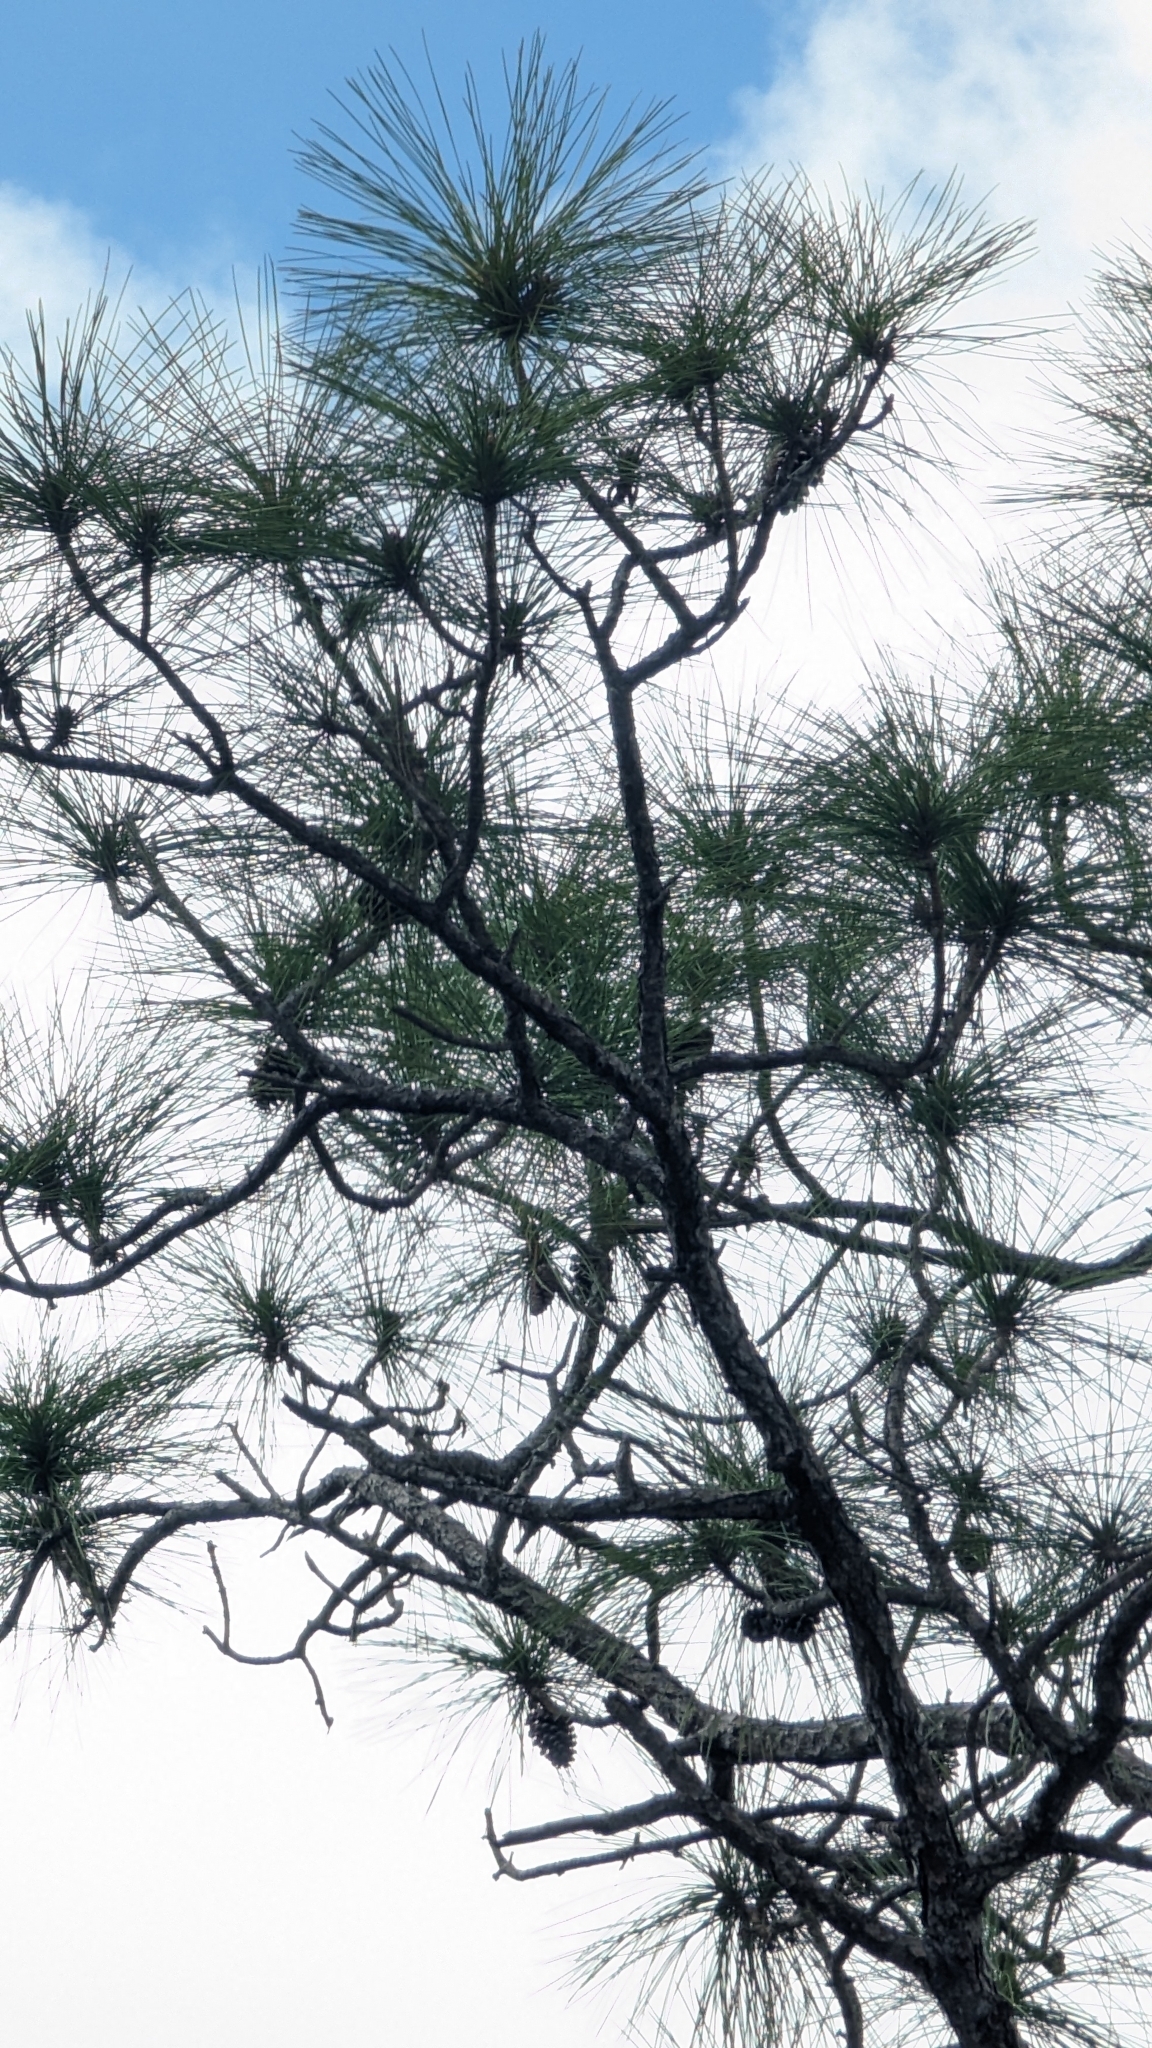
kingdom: Plantae
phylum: Tracheophyta
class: Pinopsida
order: Pinales
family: Pinaceae
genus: Pinus
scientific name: Pinus elliottii
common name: Slash pine
